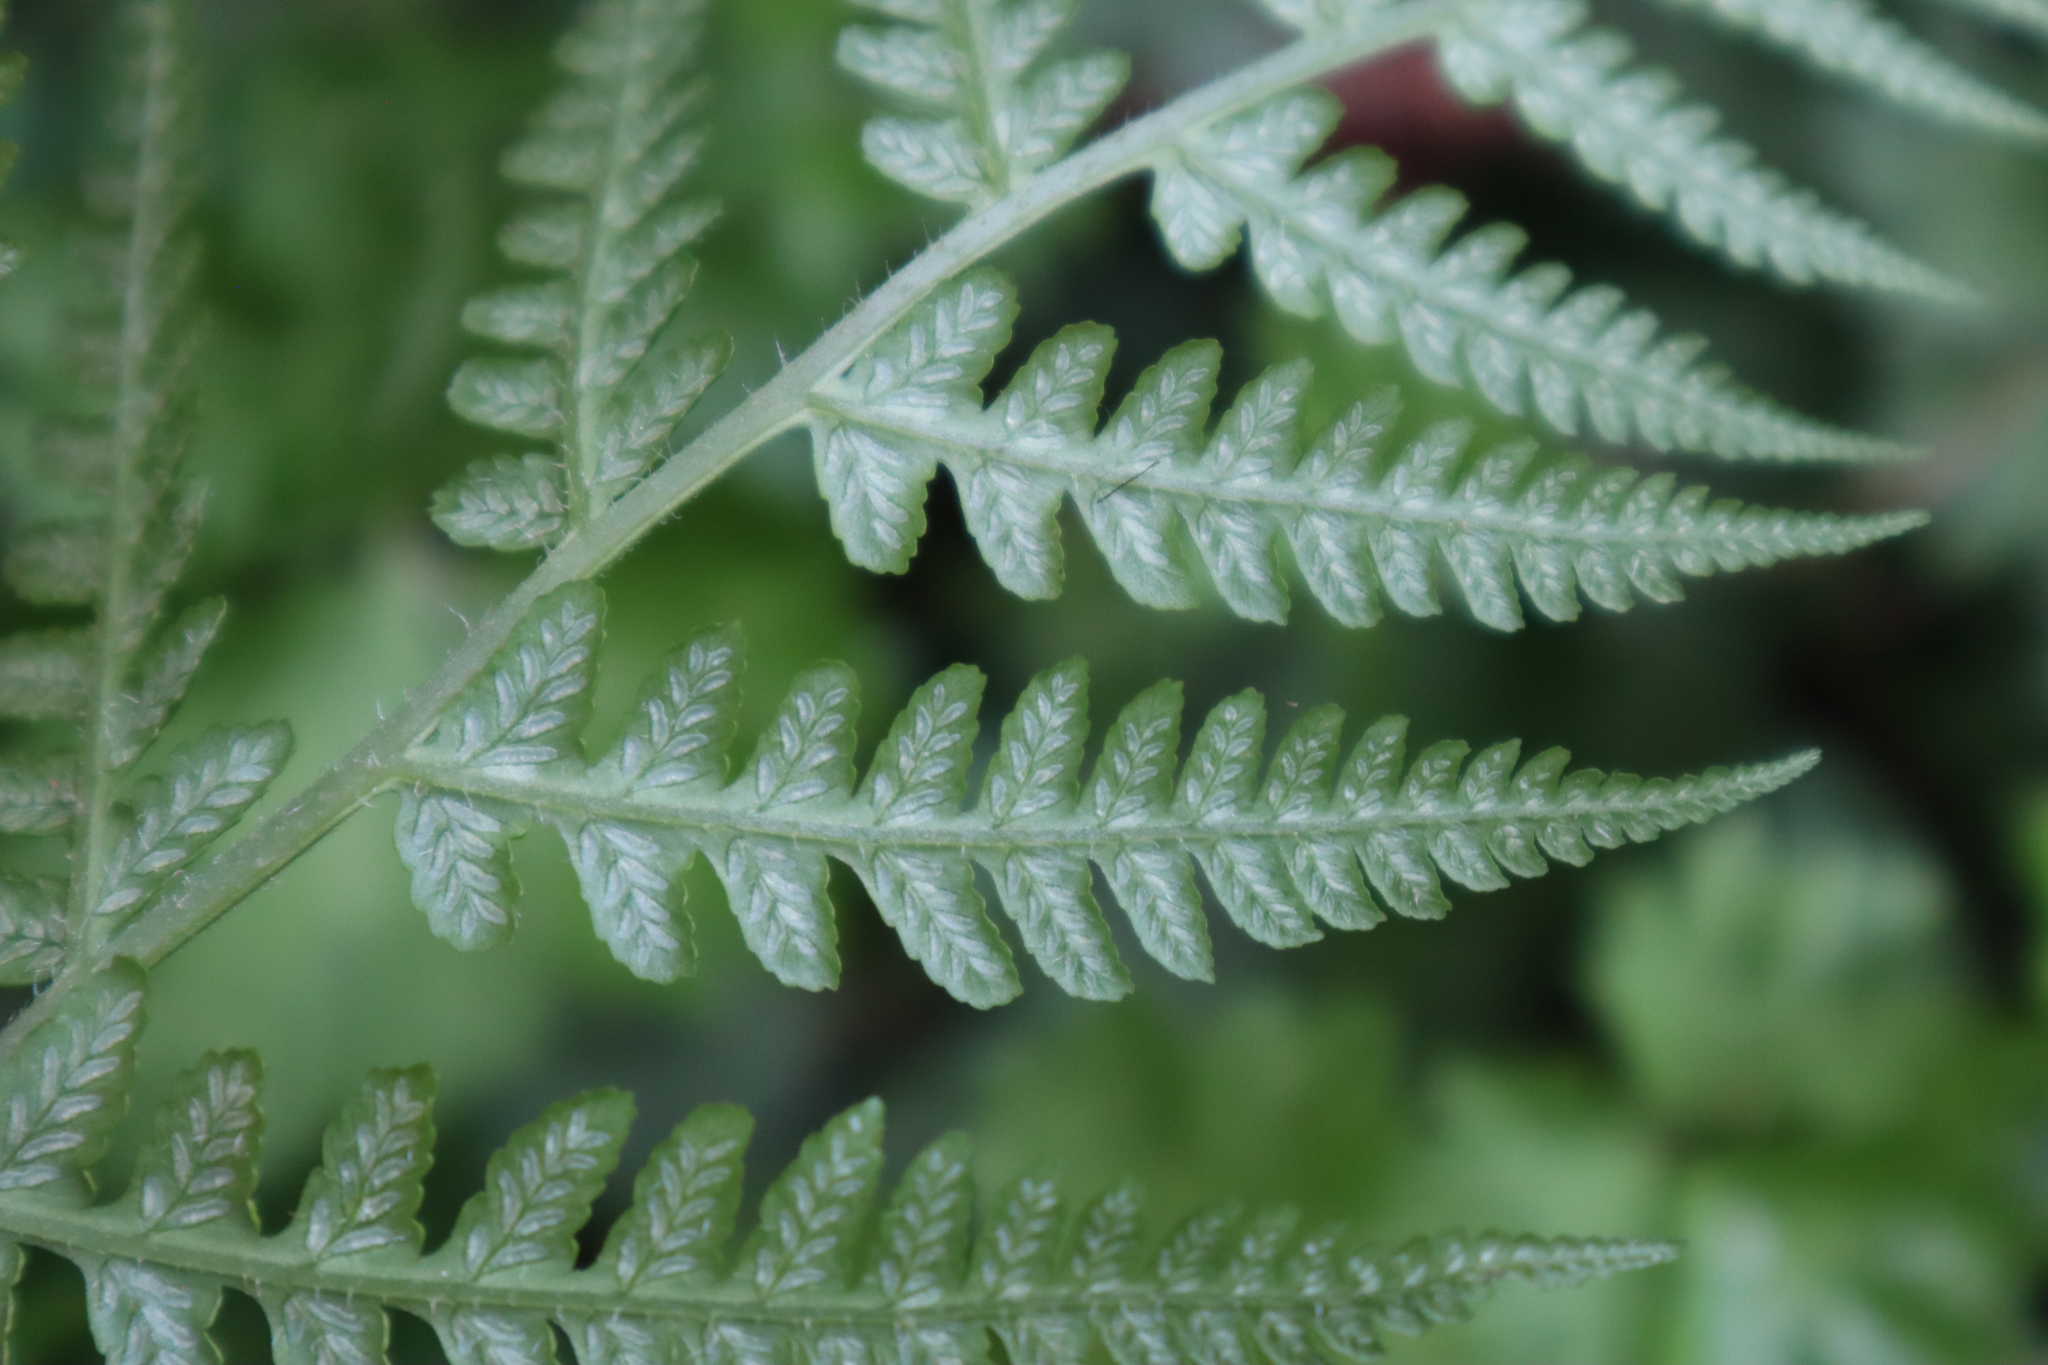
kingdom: Plantae
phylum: Tracheophyta
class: Polypodiopsida
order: Polypodiales
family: Athyriaceae
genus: Diplazium
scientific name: Diplazium congruum
